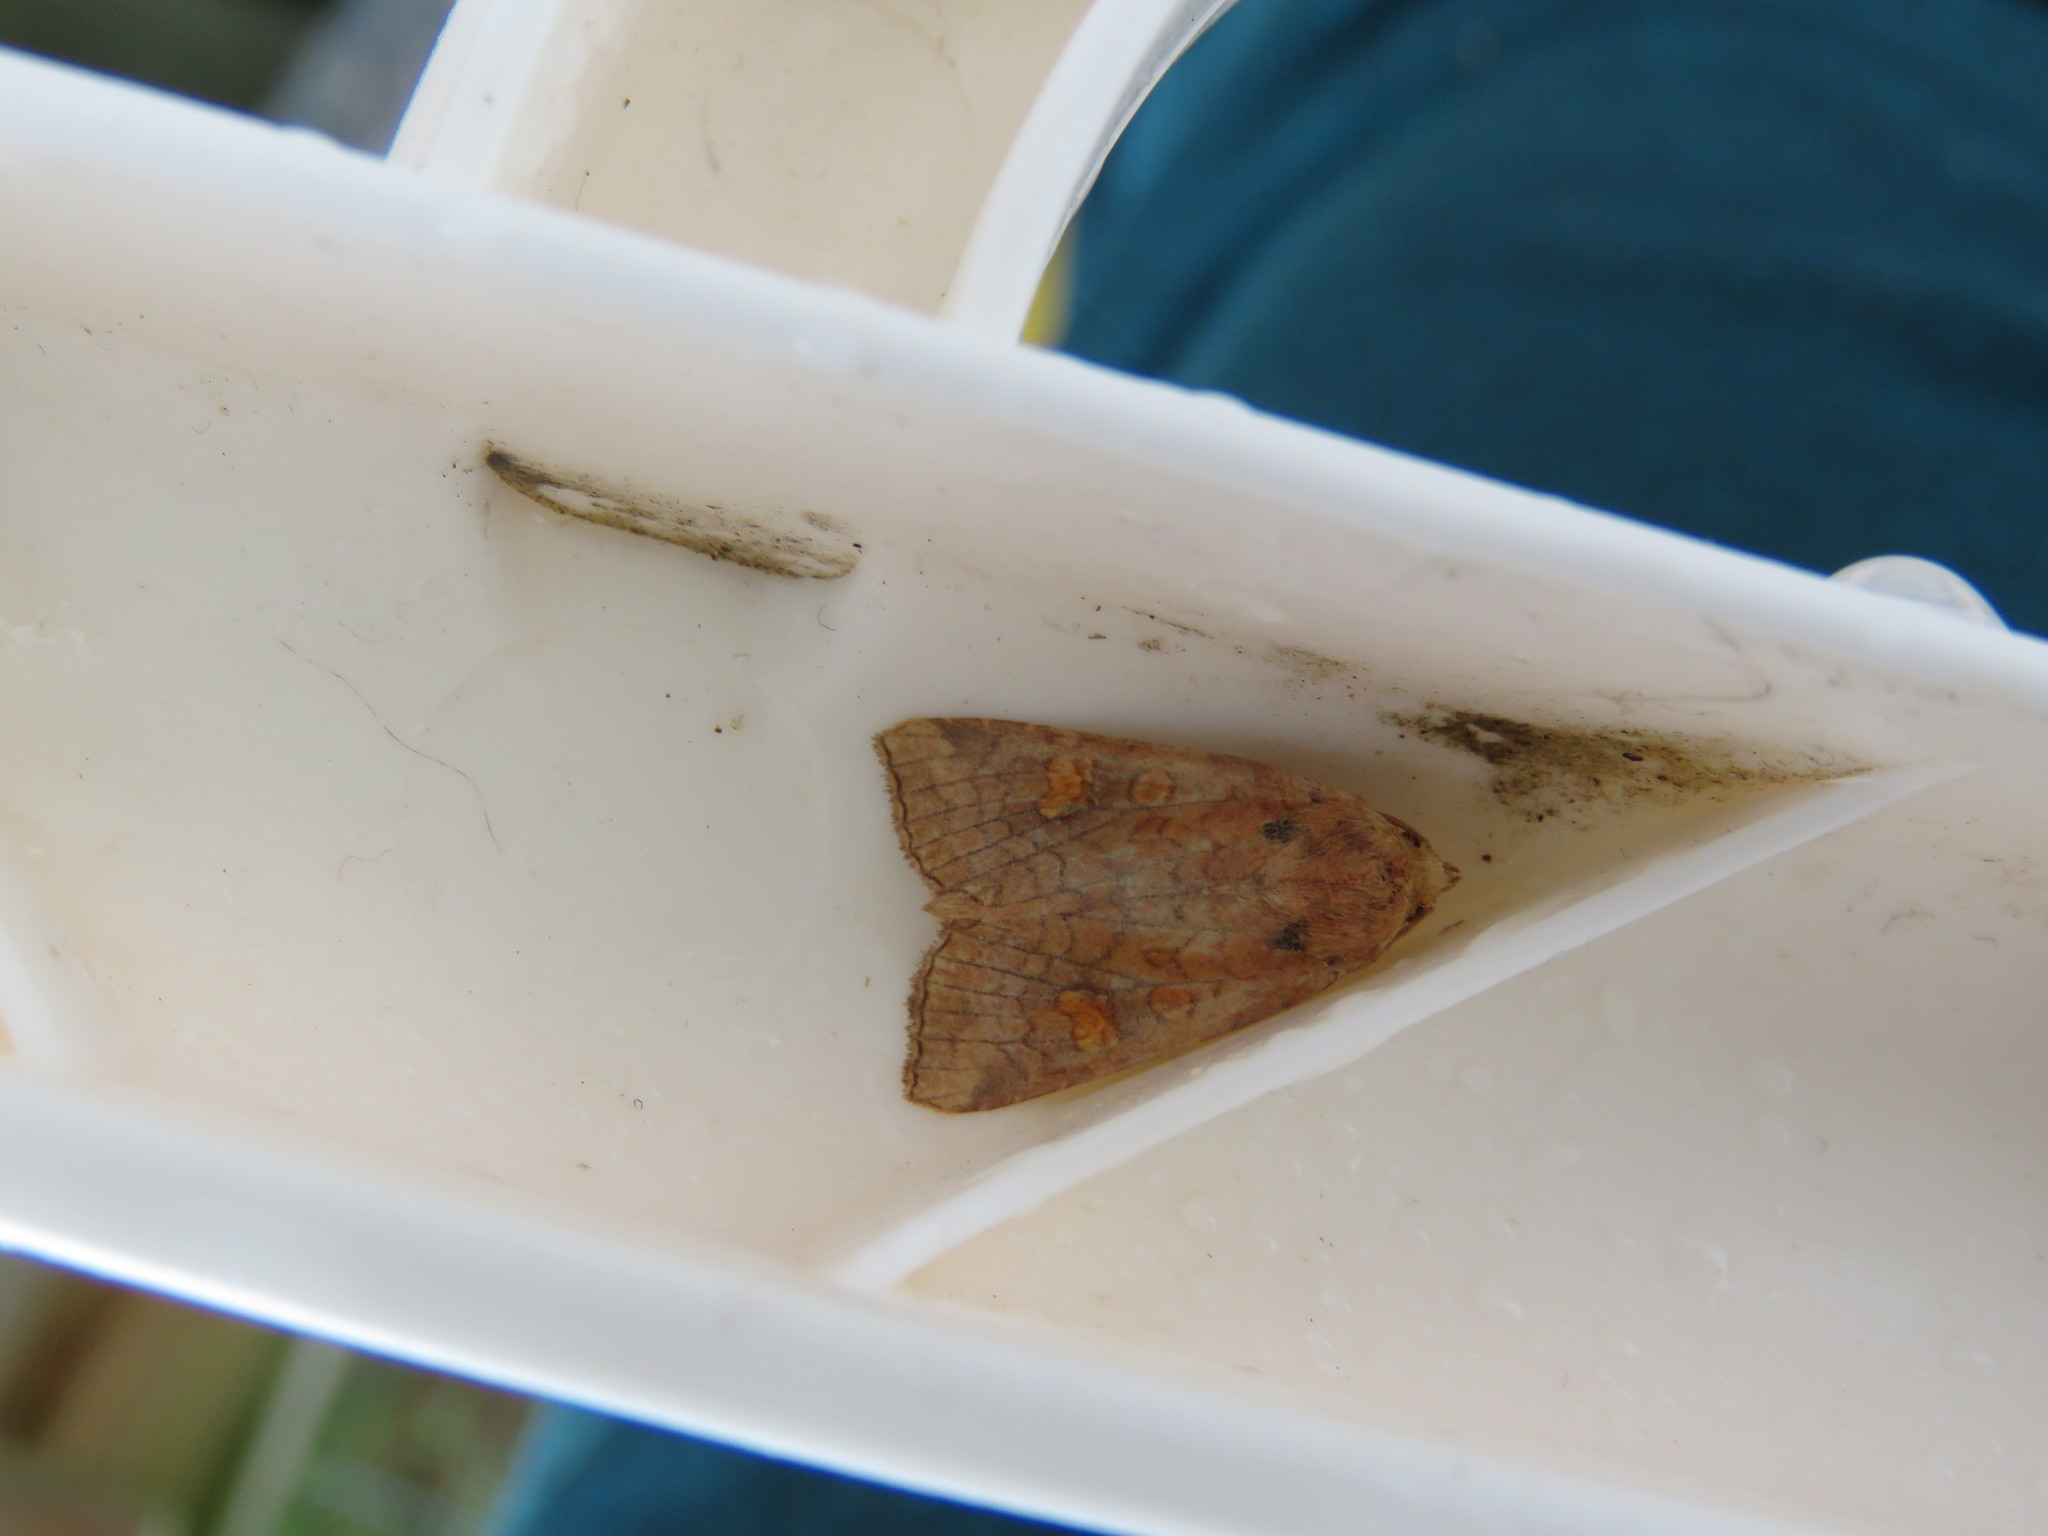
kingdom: Animalia
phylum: Arthropoda
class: Insecta
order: Lepidoptera
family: Noctuidae
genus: Amphipoea
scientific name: Amphipoea
